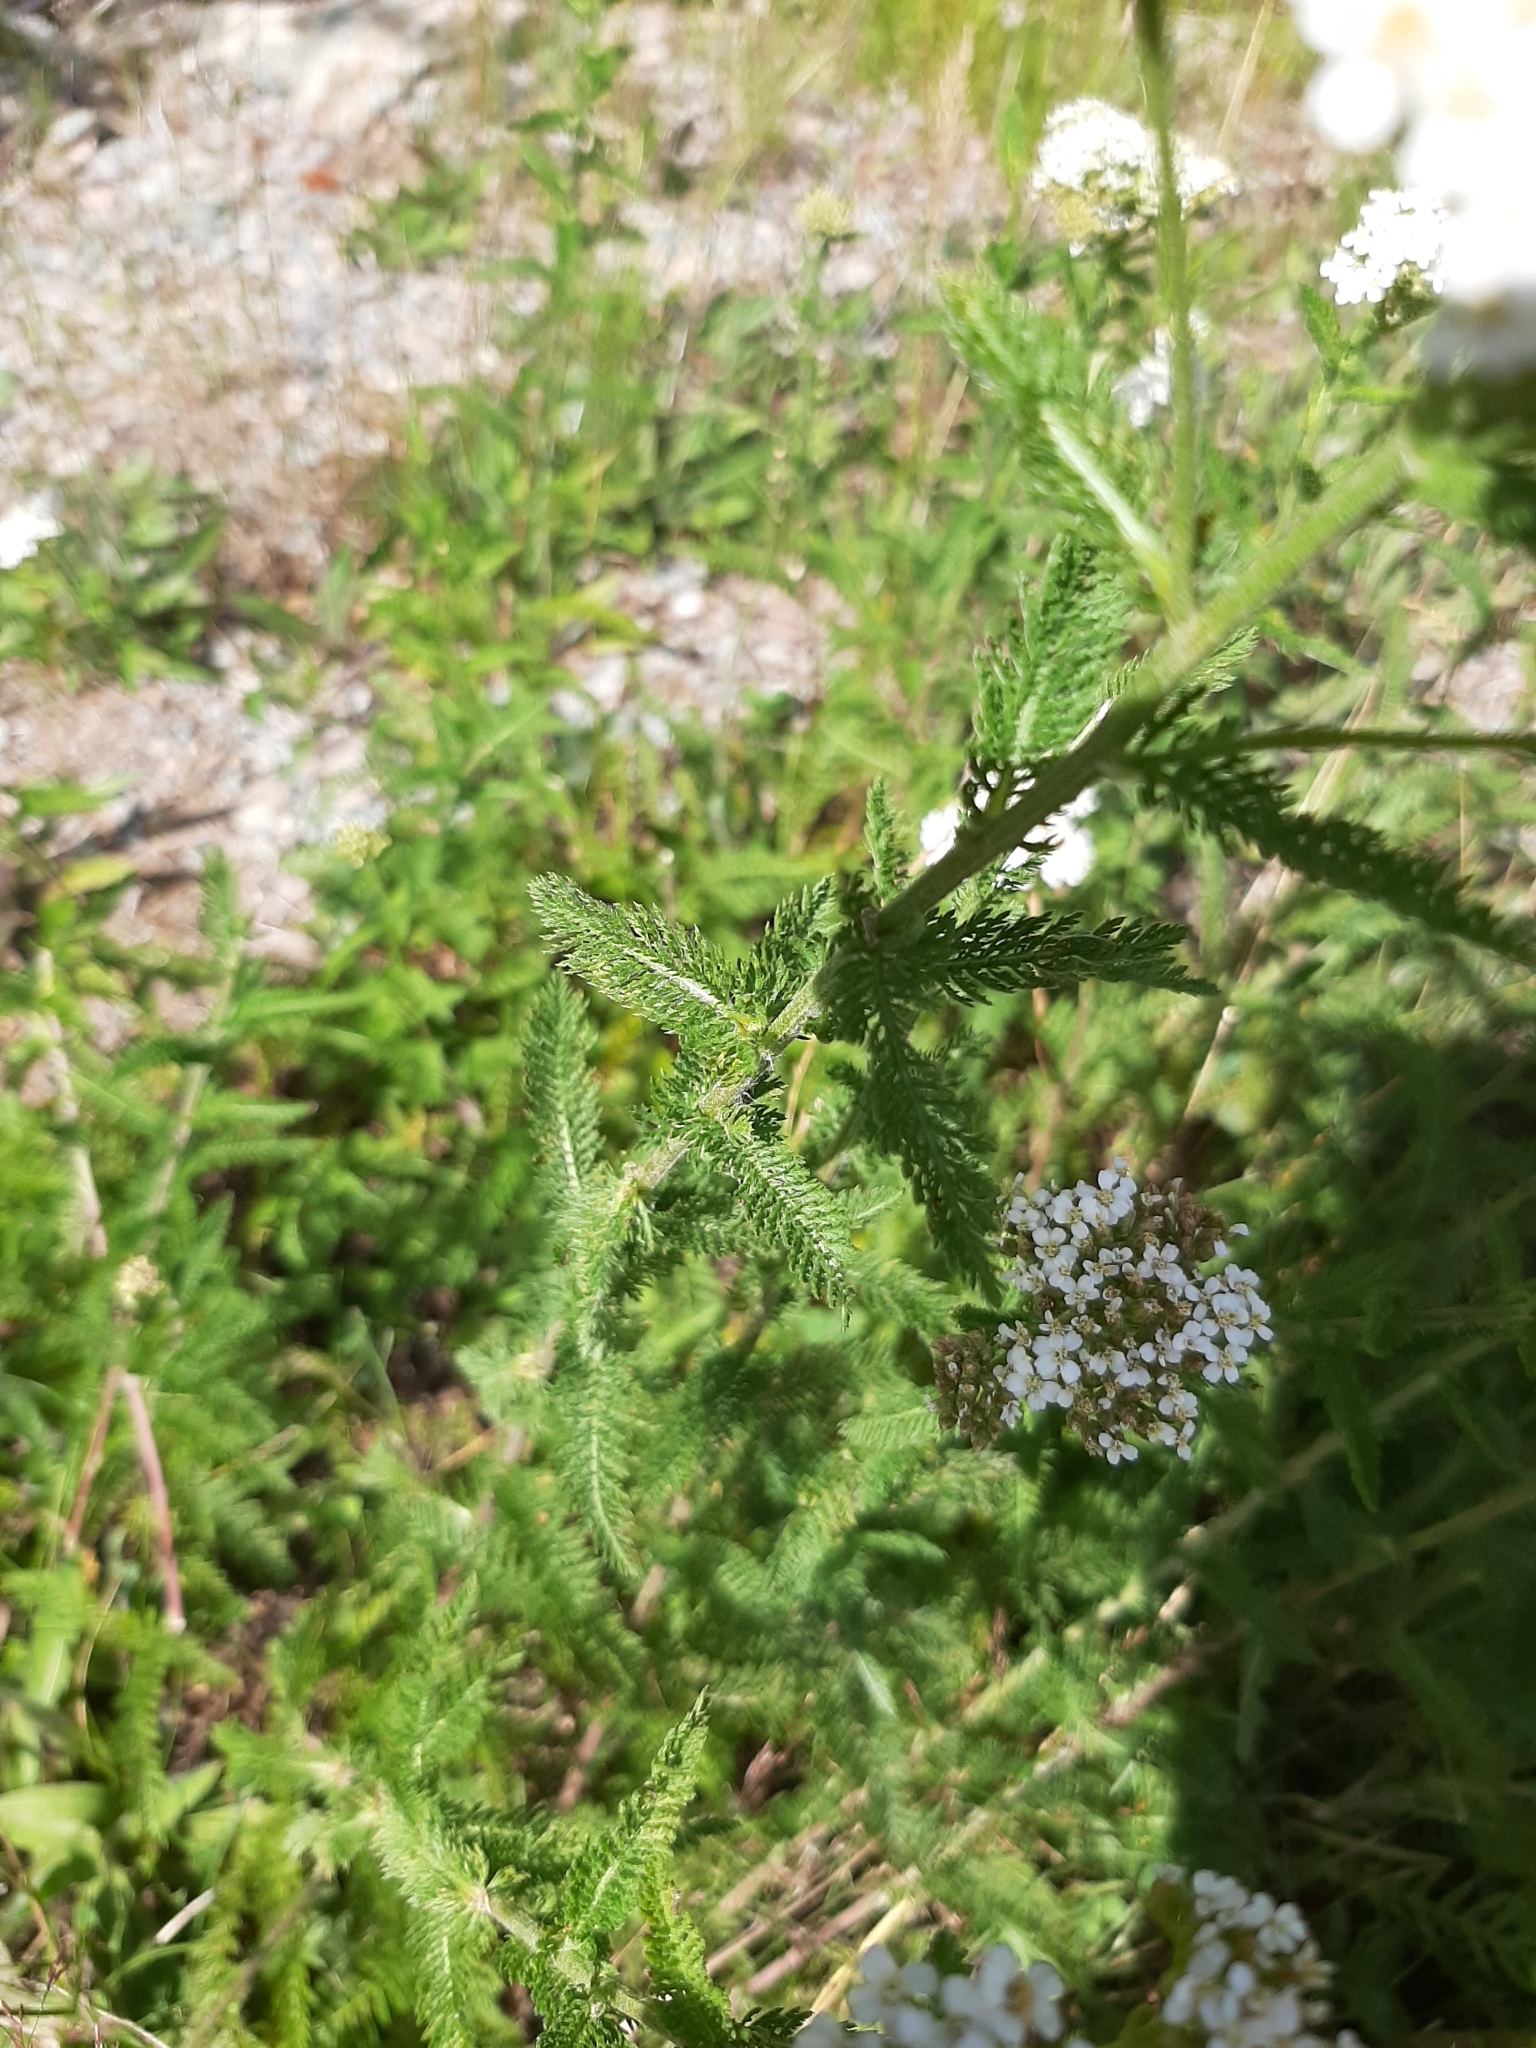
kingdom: Plantae
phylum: Tracheophyta
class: Magnoliopsida
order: Asterales
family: Asteraceae
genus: Achillea
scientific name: Achillea millefolium
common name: Yarrow
